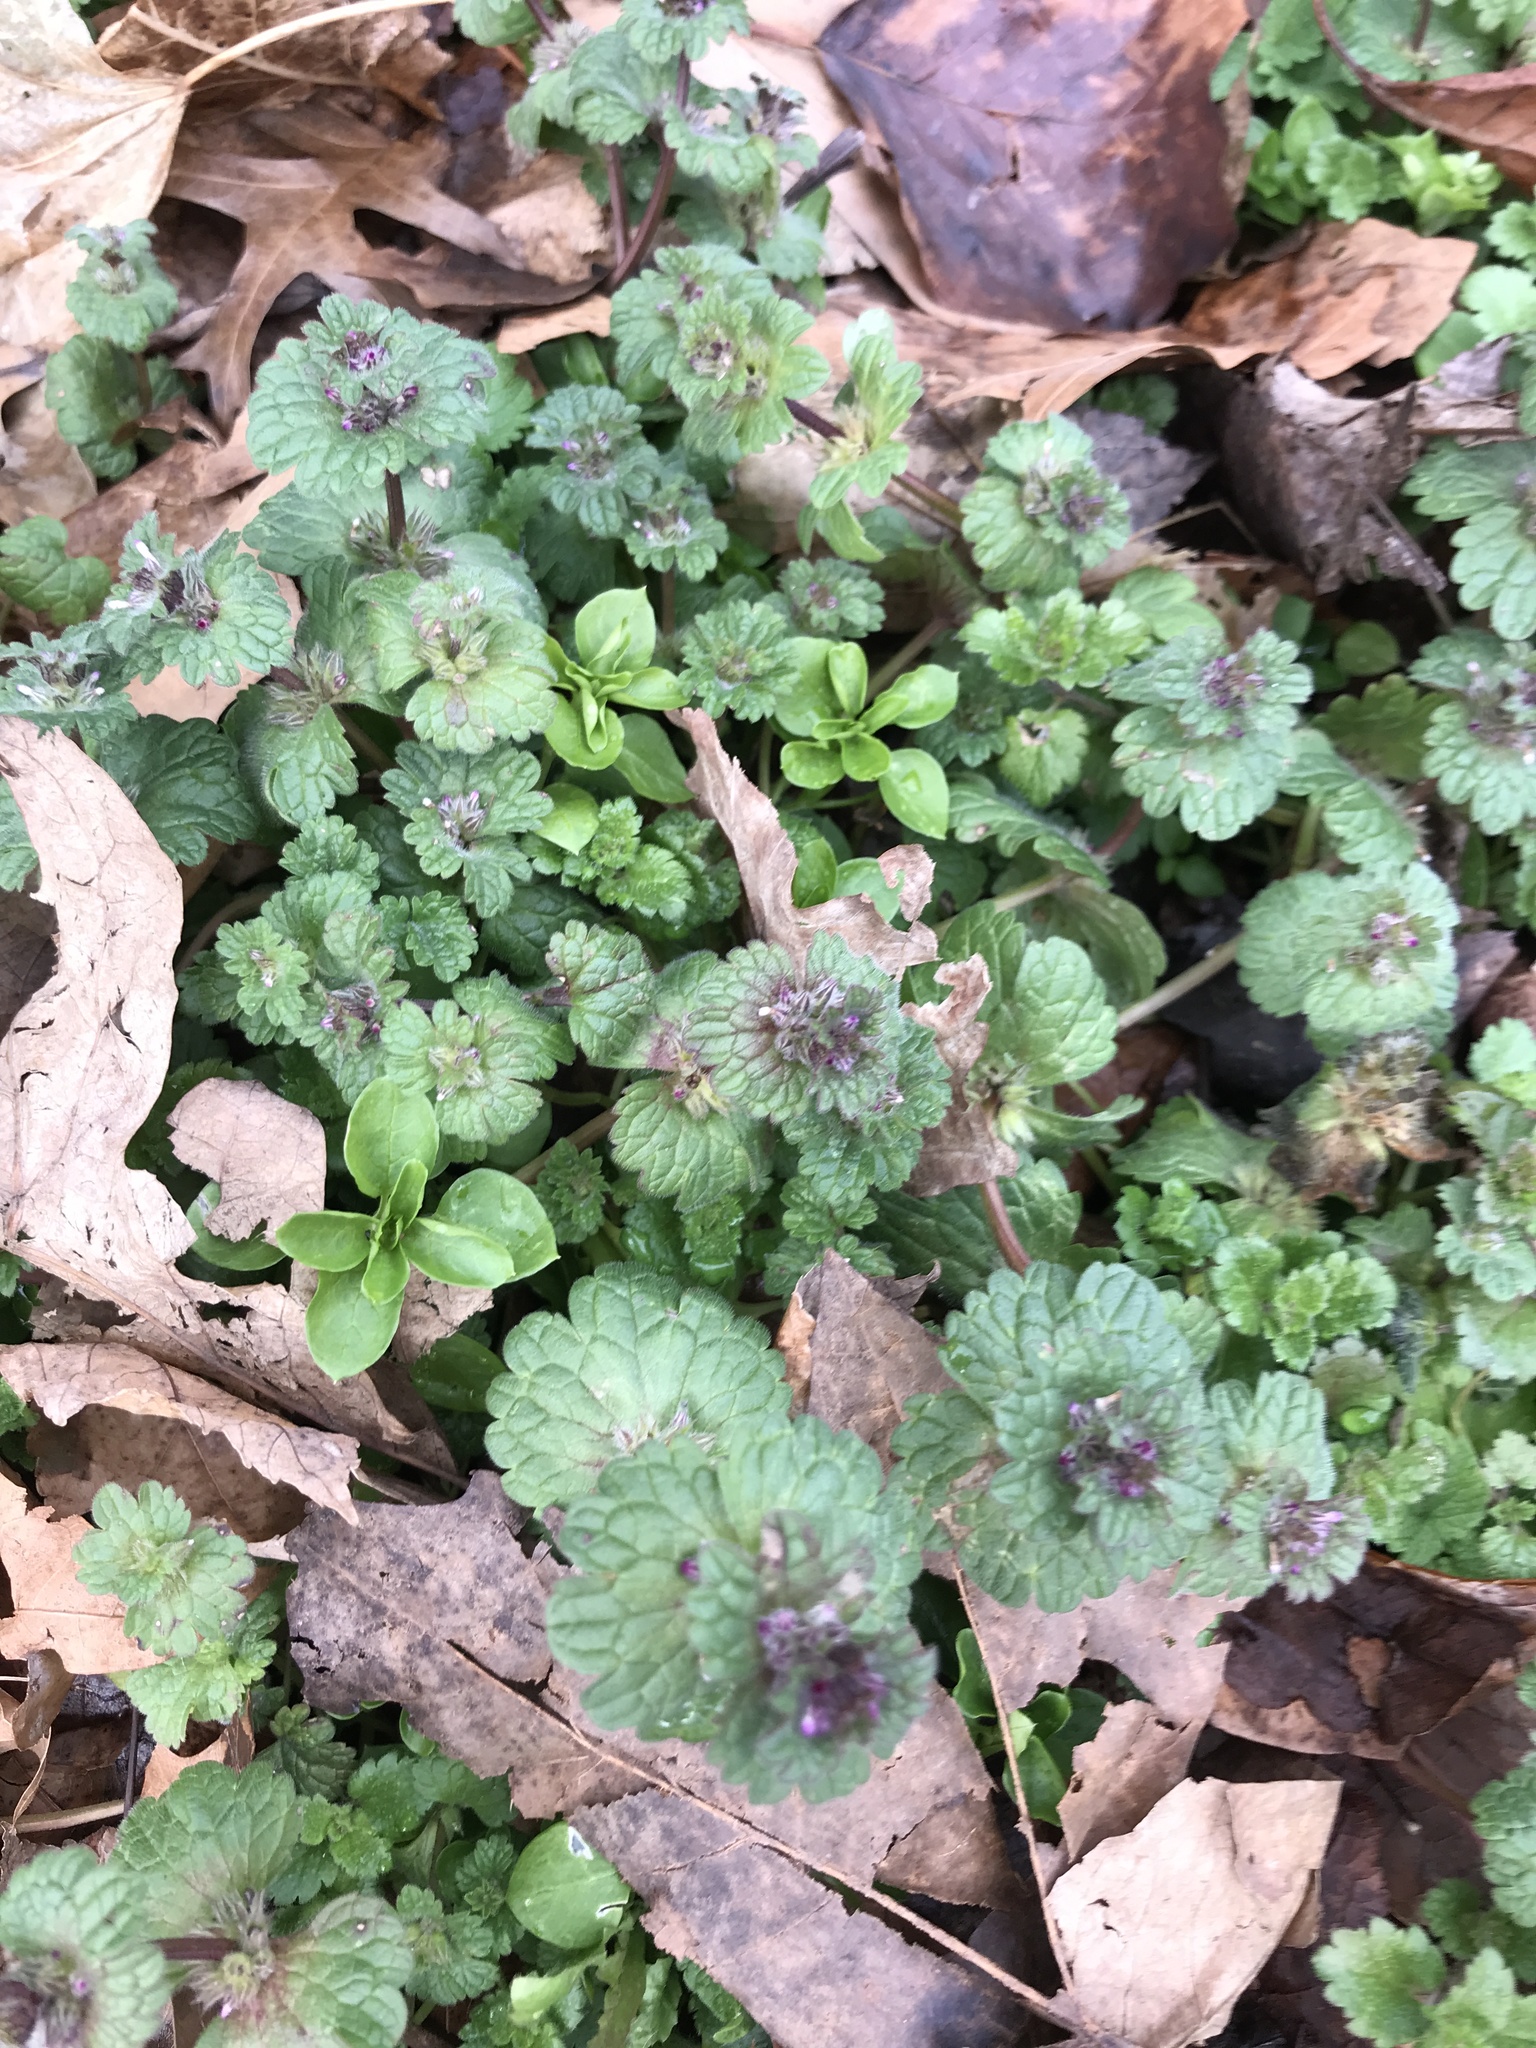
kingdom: Plantae
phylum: Tracheophyta
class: Magnoliopsida
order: Lamiales
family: Lamiaceae
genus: Lamium
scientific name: Lamium amplexicaule
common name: Henbit dead-nettle
